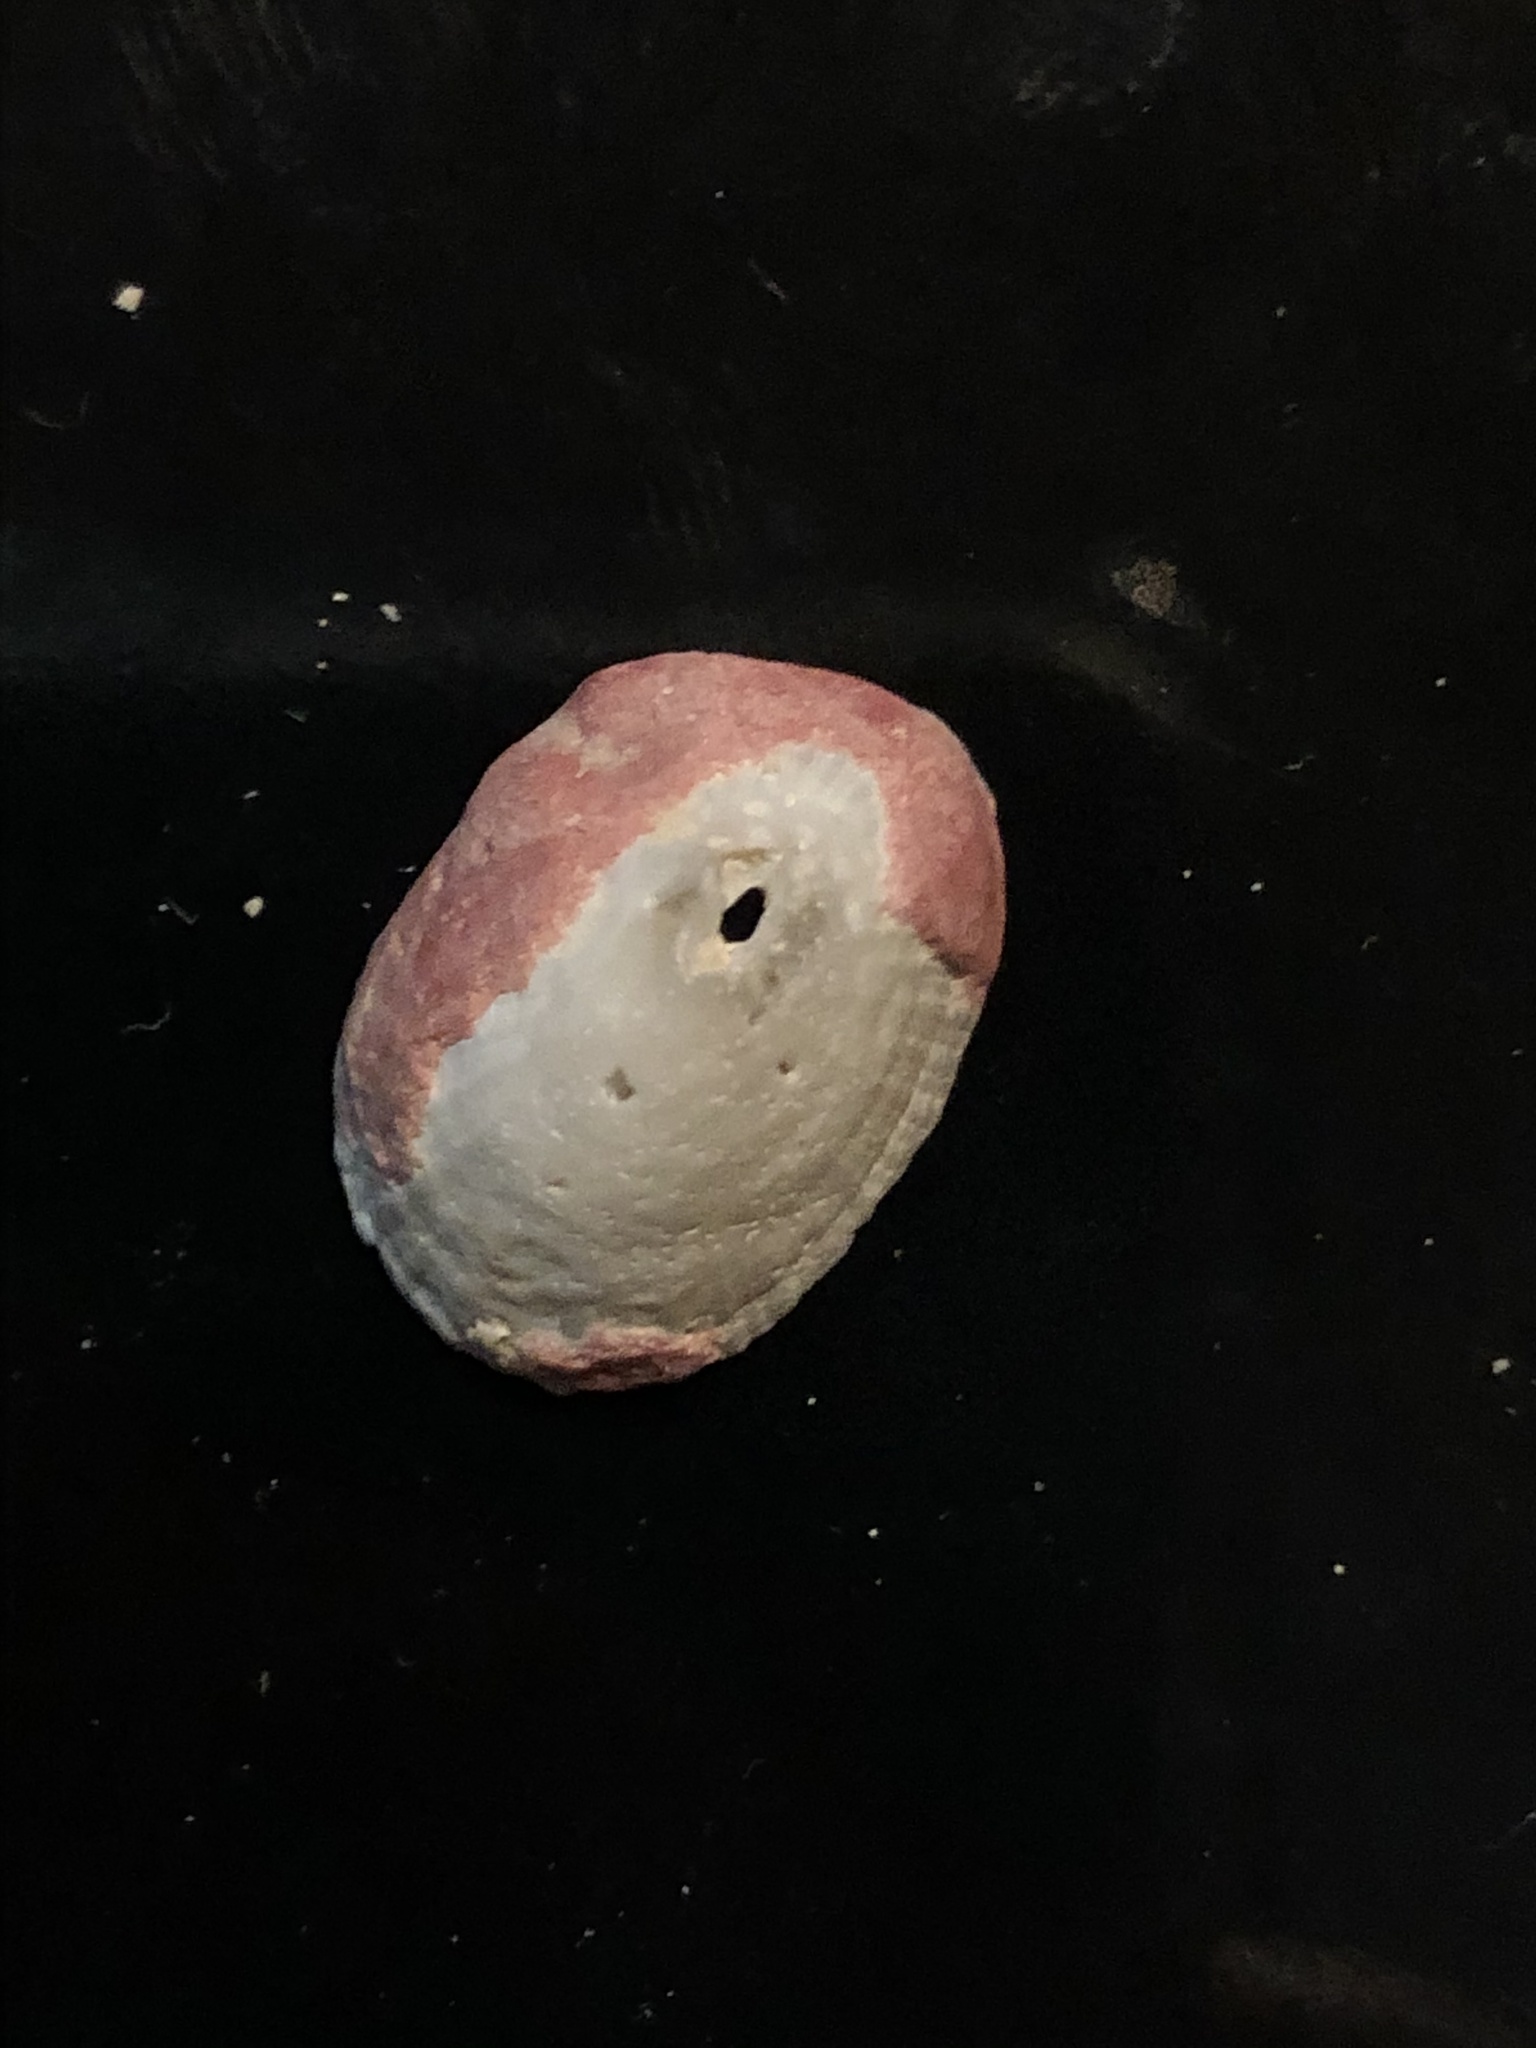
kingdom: Chromista
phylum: Foraminifera
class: Globothalamea
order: Rotaliida
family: Homotrematidae
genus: Homotrema
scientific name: Homotrema rubrum
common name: Red foram
